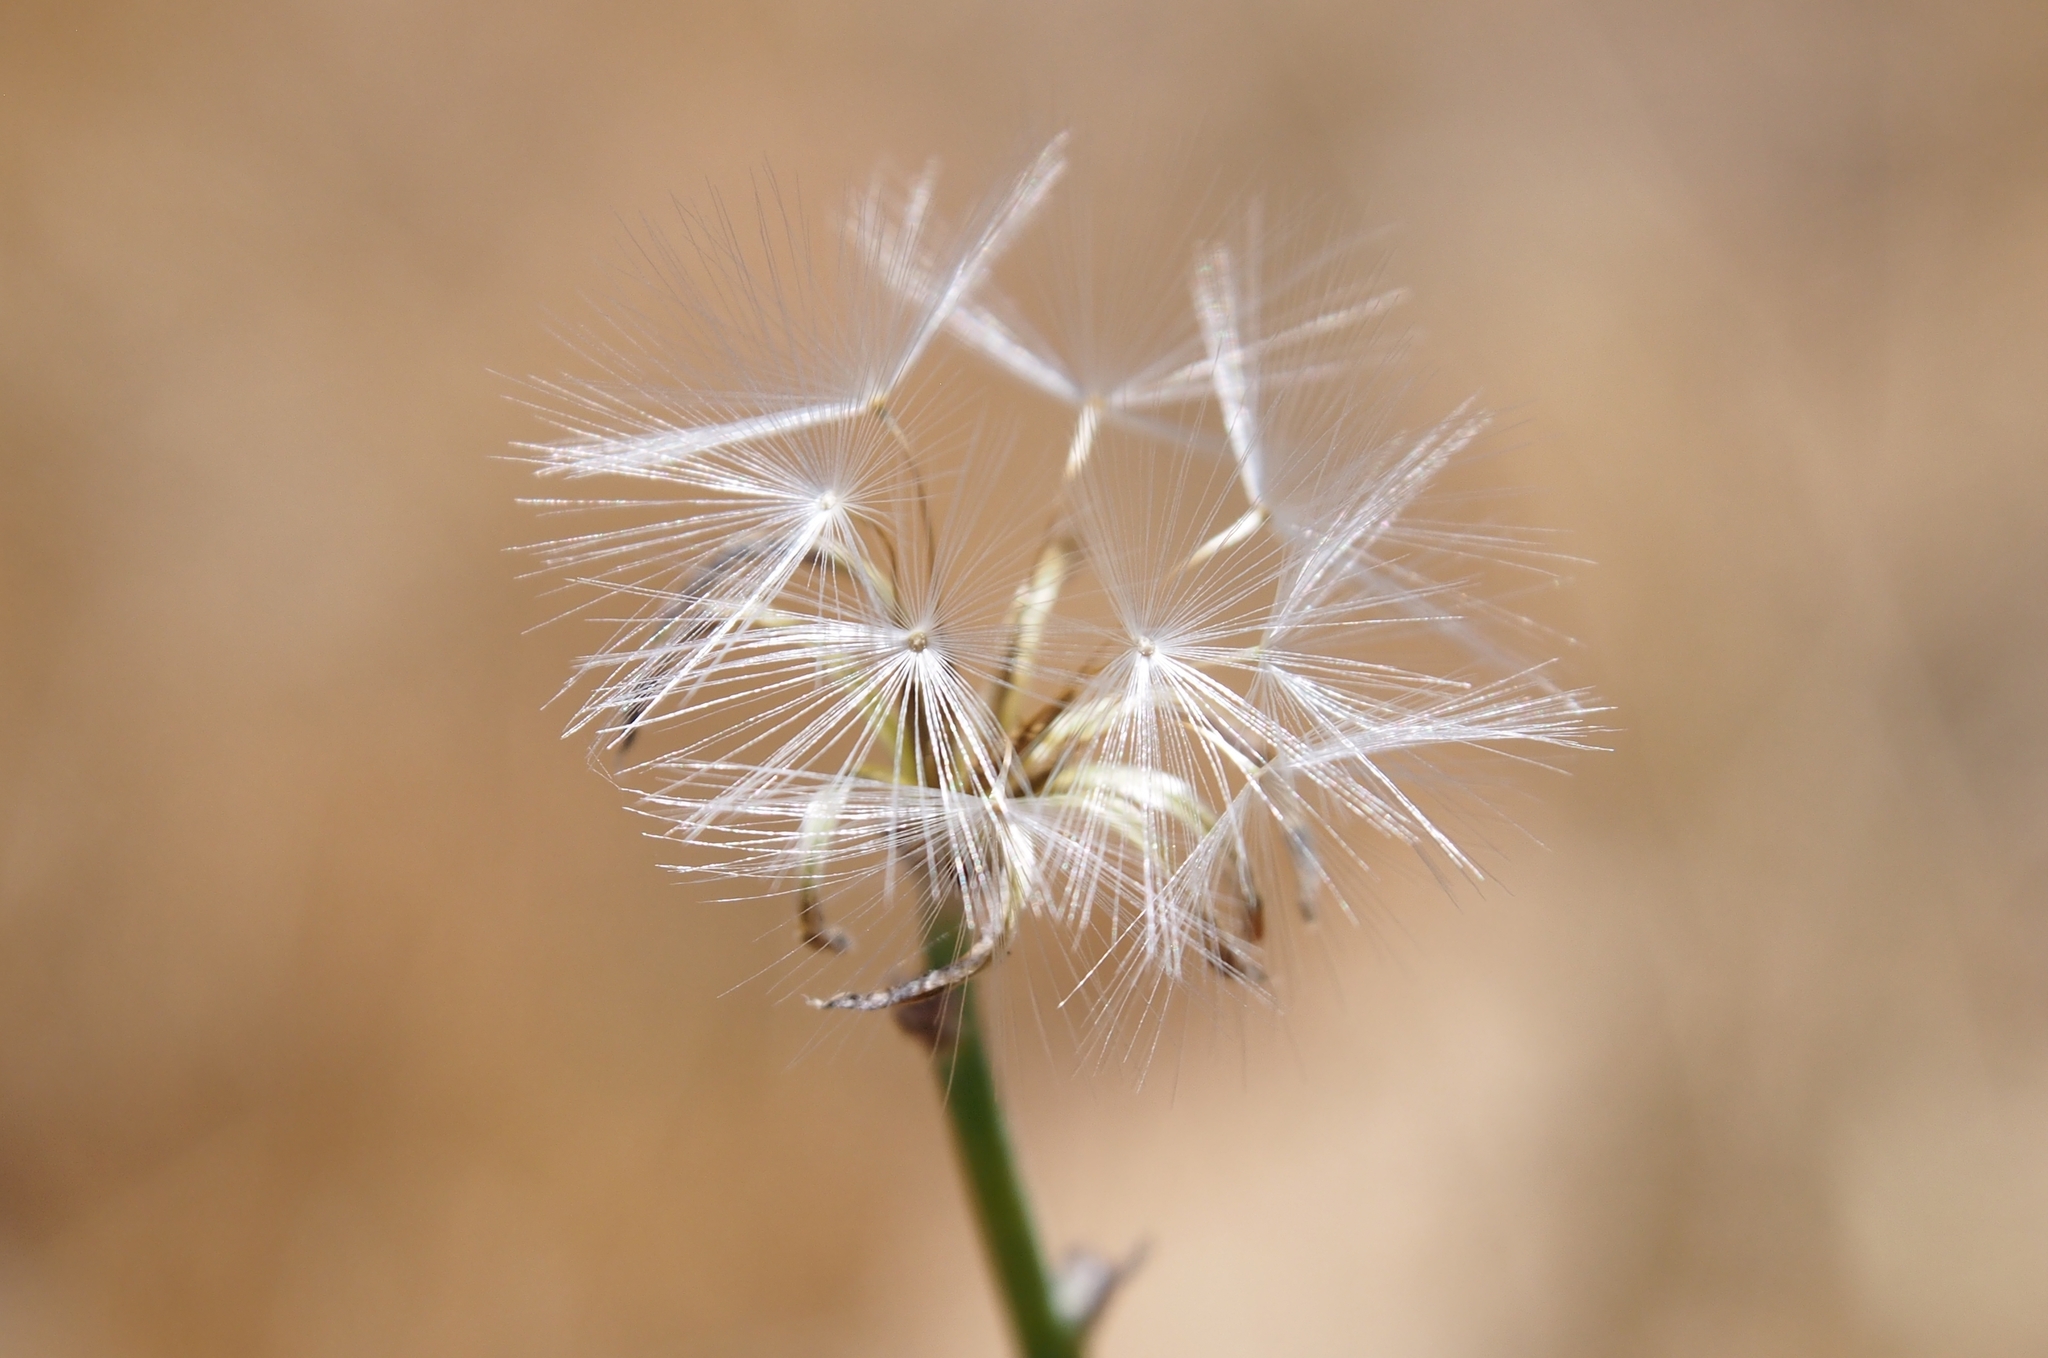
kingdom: Plantae
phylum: Tracheophyta
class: Magnoliopsida
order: Asterales
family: Asteraceae
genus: Chondrilla
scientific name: Chondrilla juncea
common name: Skeleton weed
